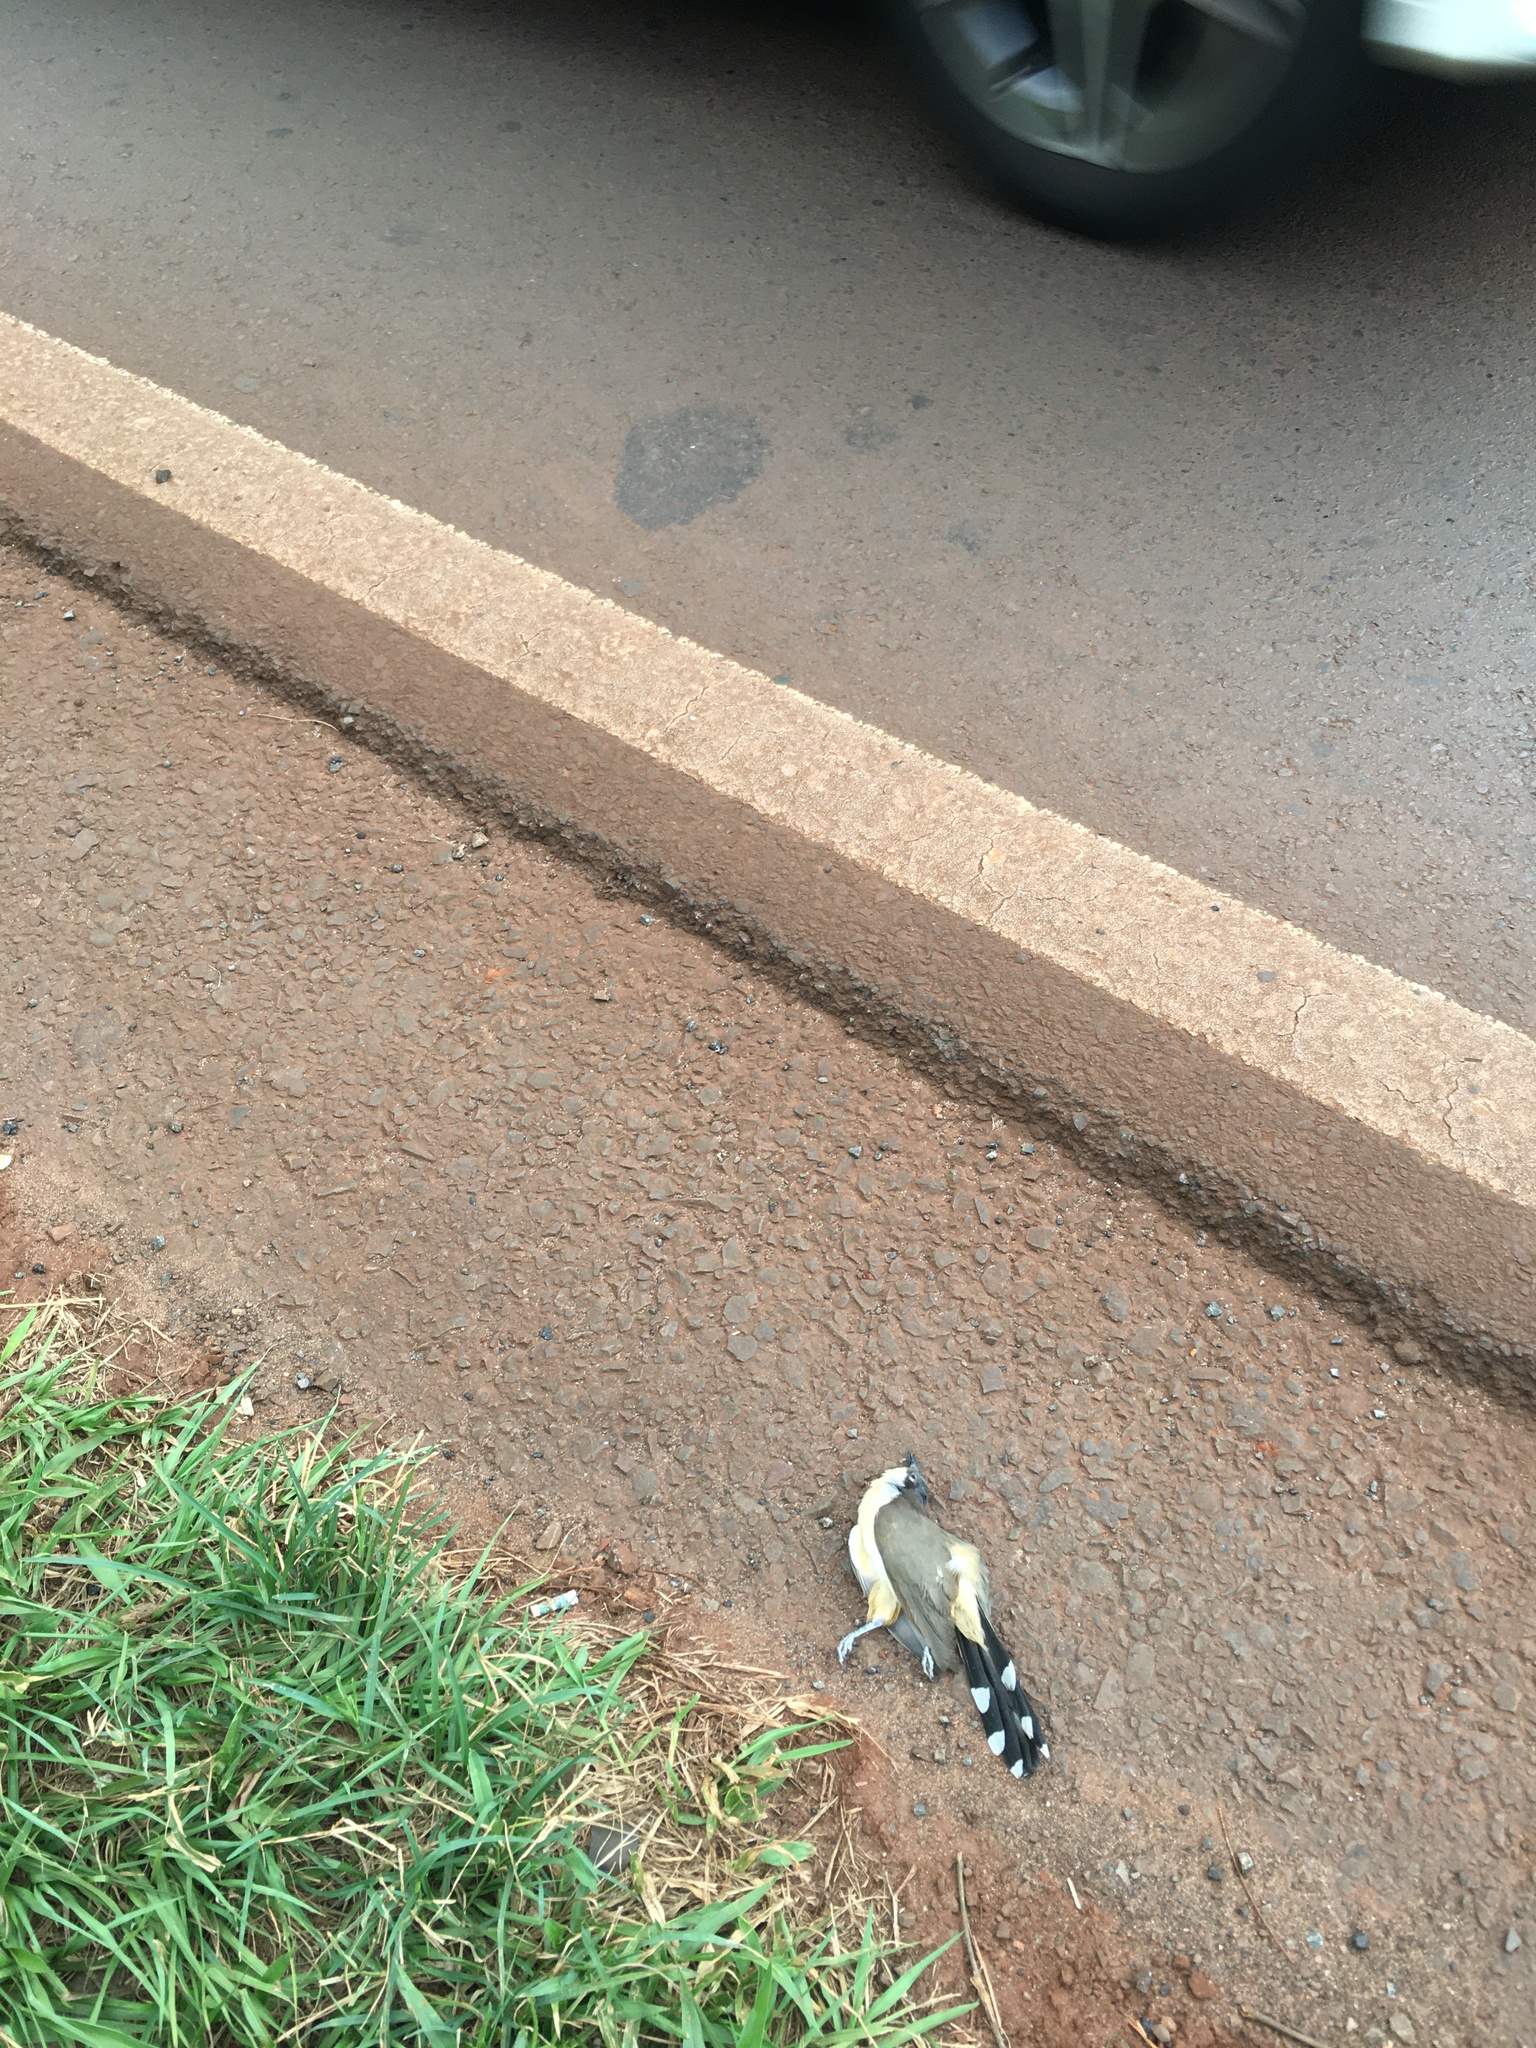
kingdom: Animalia
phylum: Chordata
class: Aves
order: Cuculiformes
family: Cuculidae
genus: Coccyzus
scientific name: Coccyzus melacoryphus
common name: Dark-billed cuckoo
